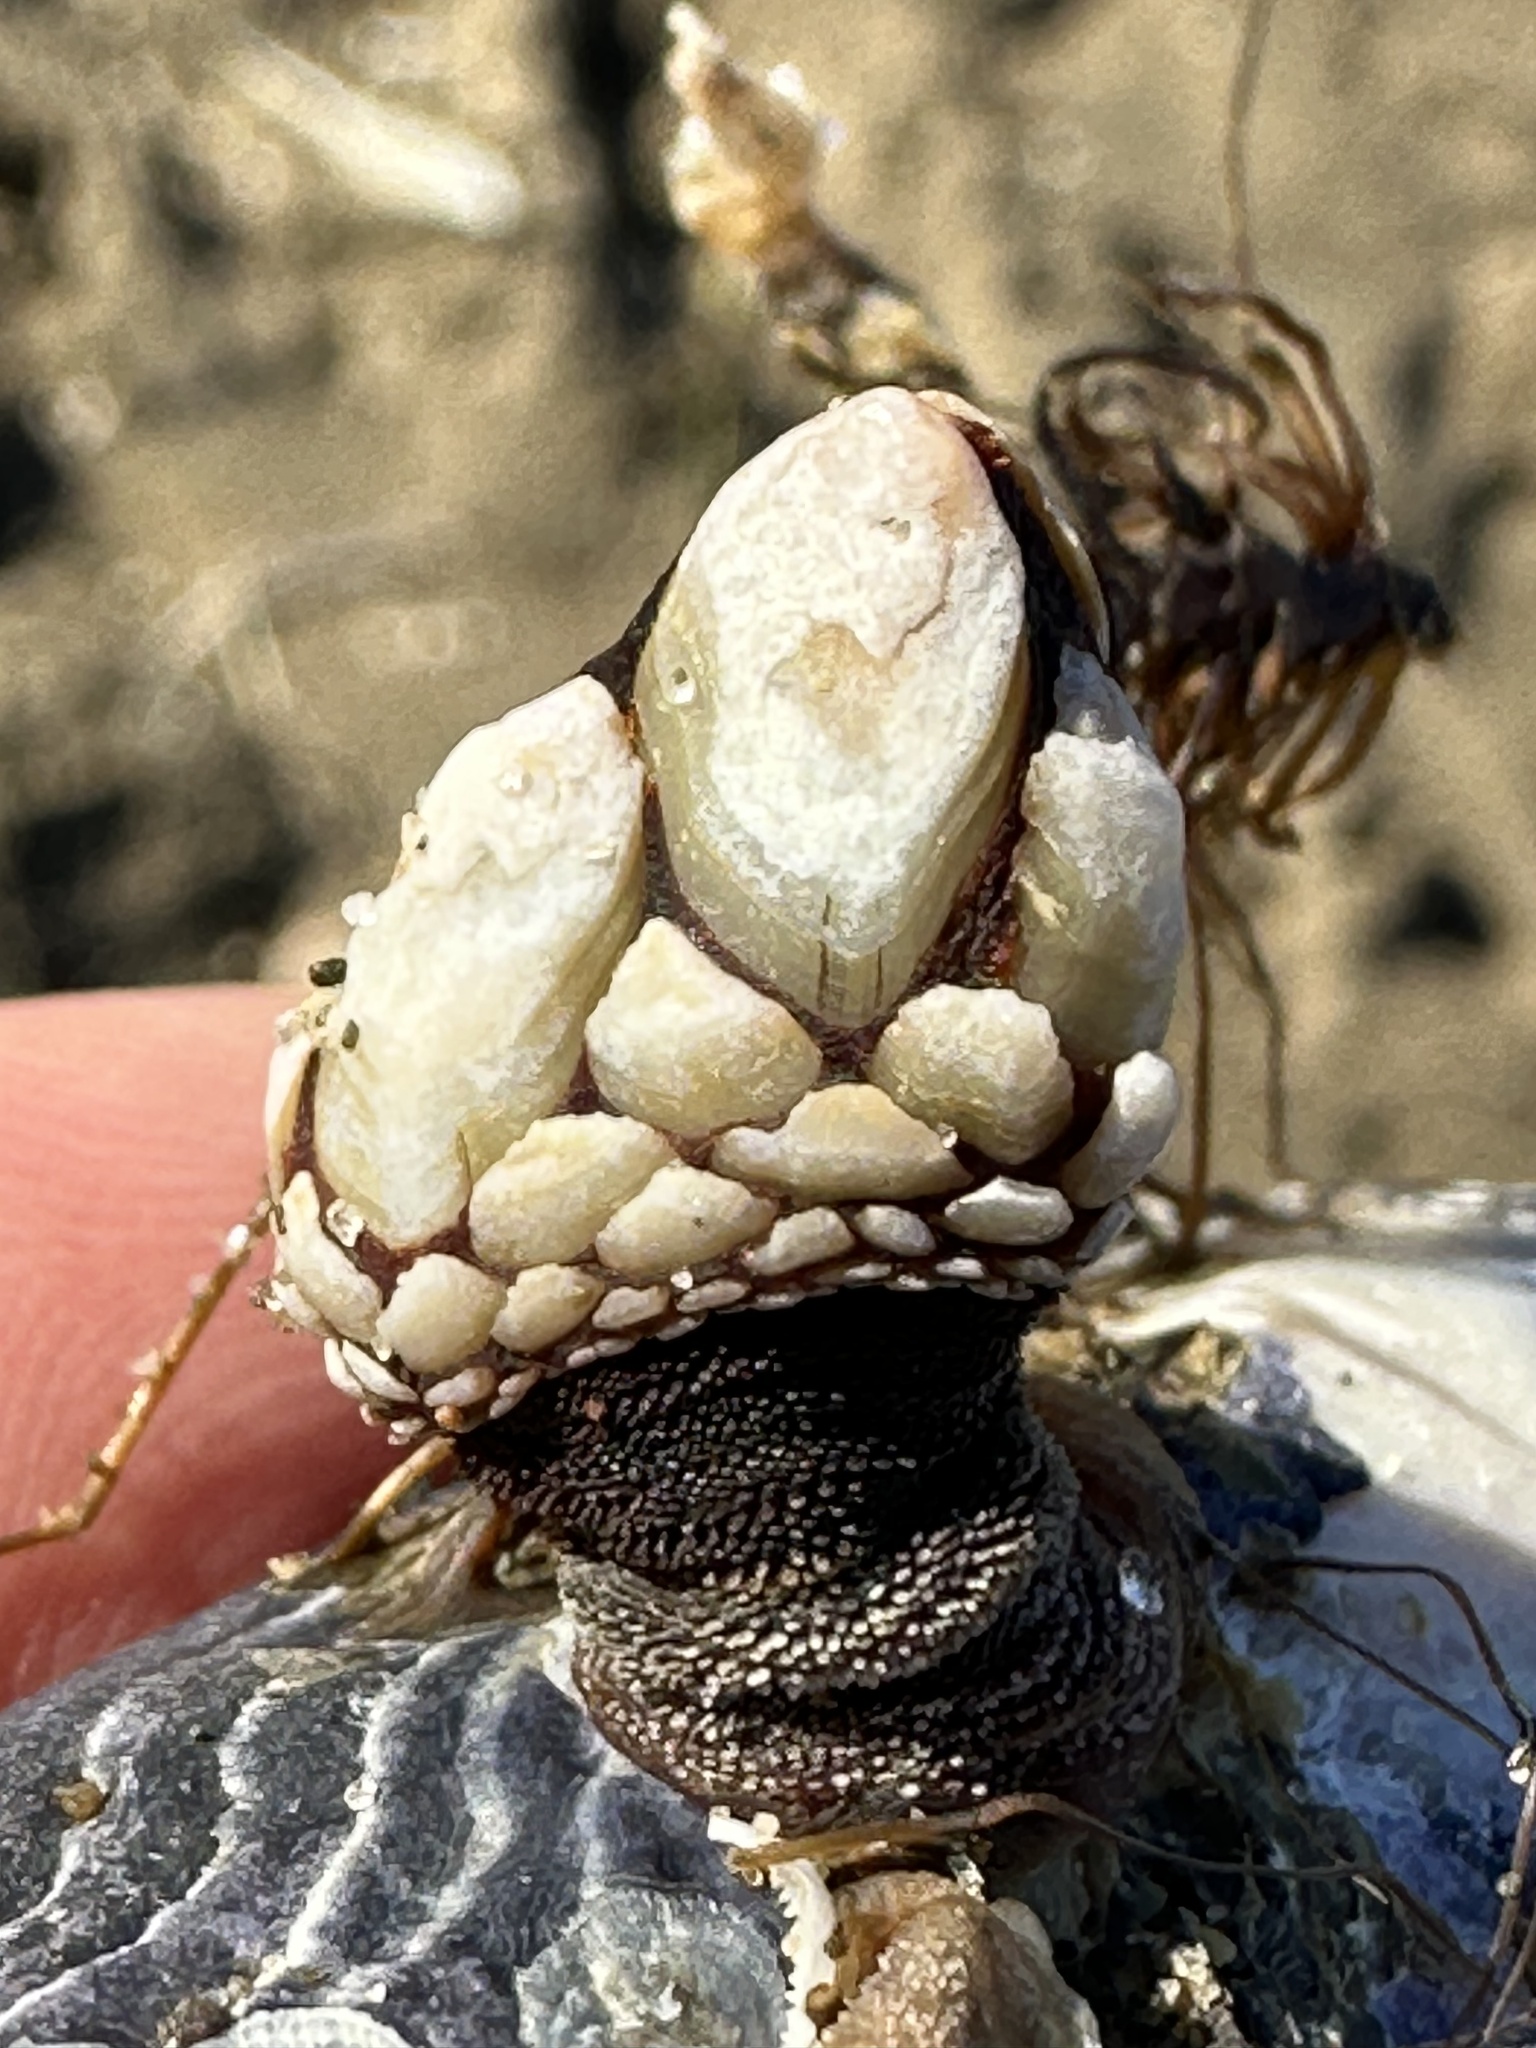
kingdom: Animalia
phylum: Arthropoda
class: Maxillopoda
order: Pedunculata
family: Pollicipedidae
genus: Pollicipes
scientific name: Pollicipes polymerus
